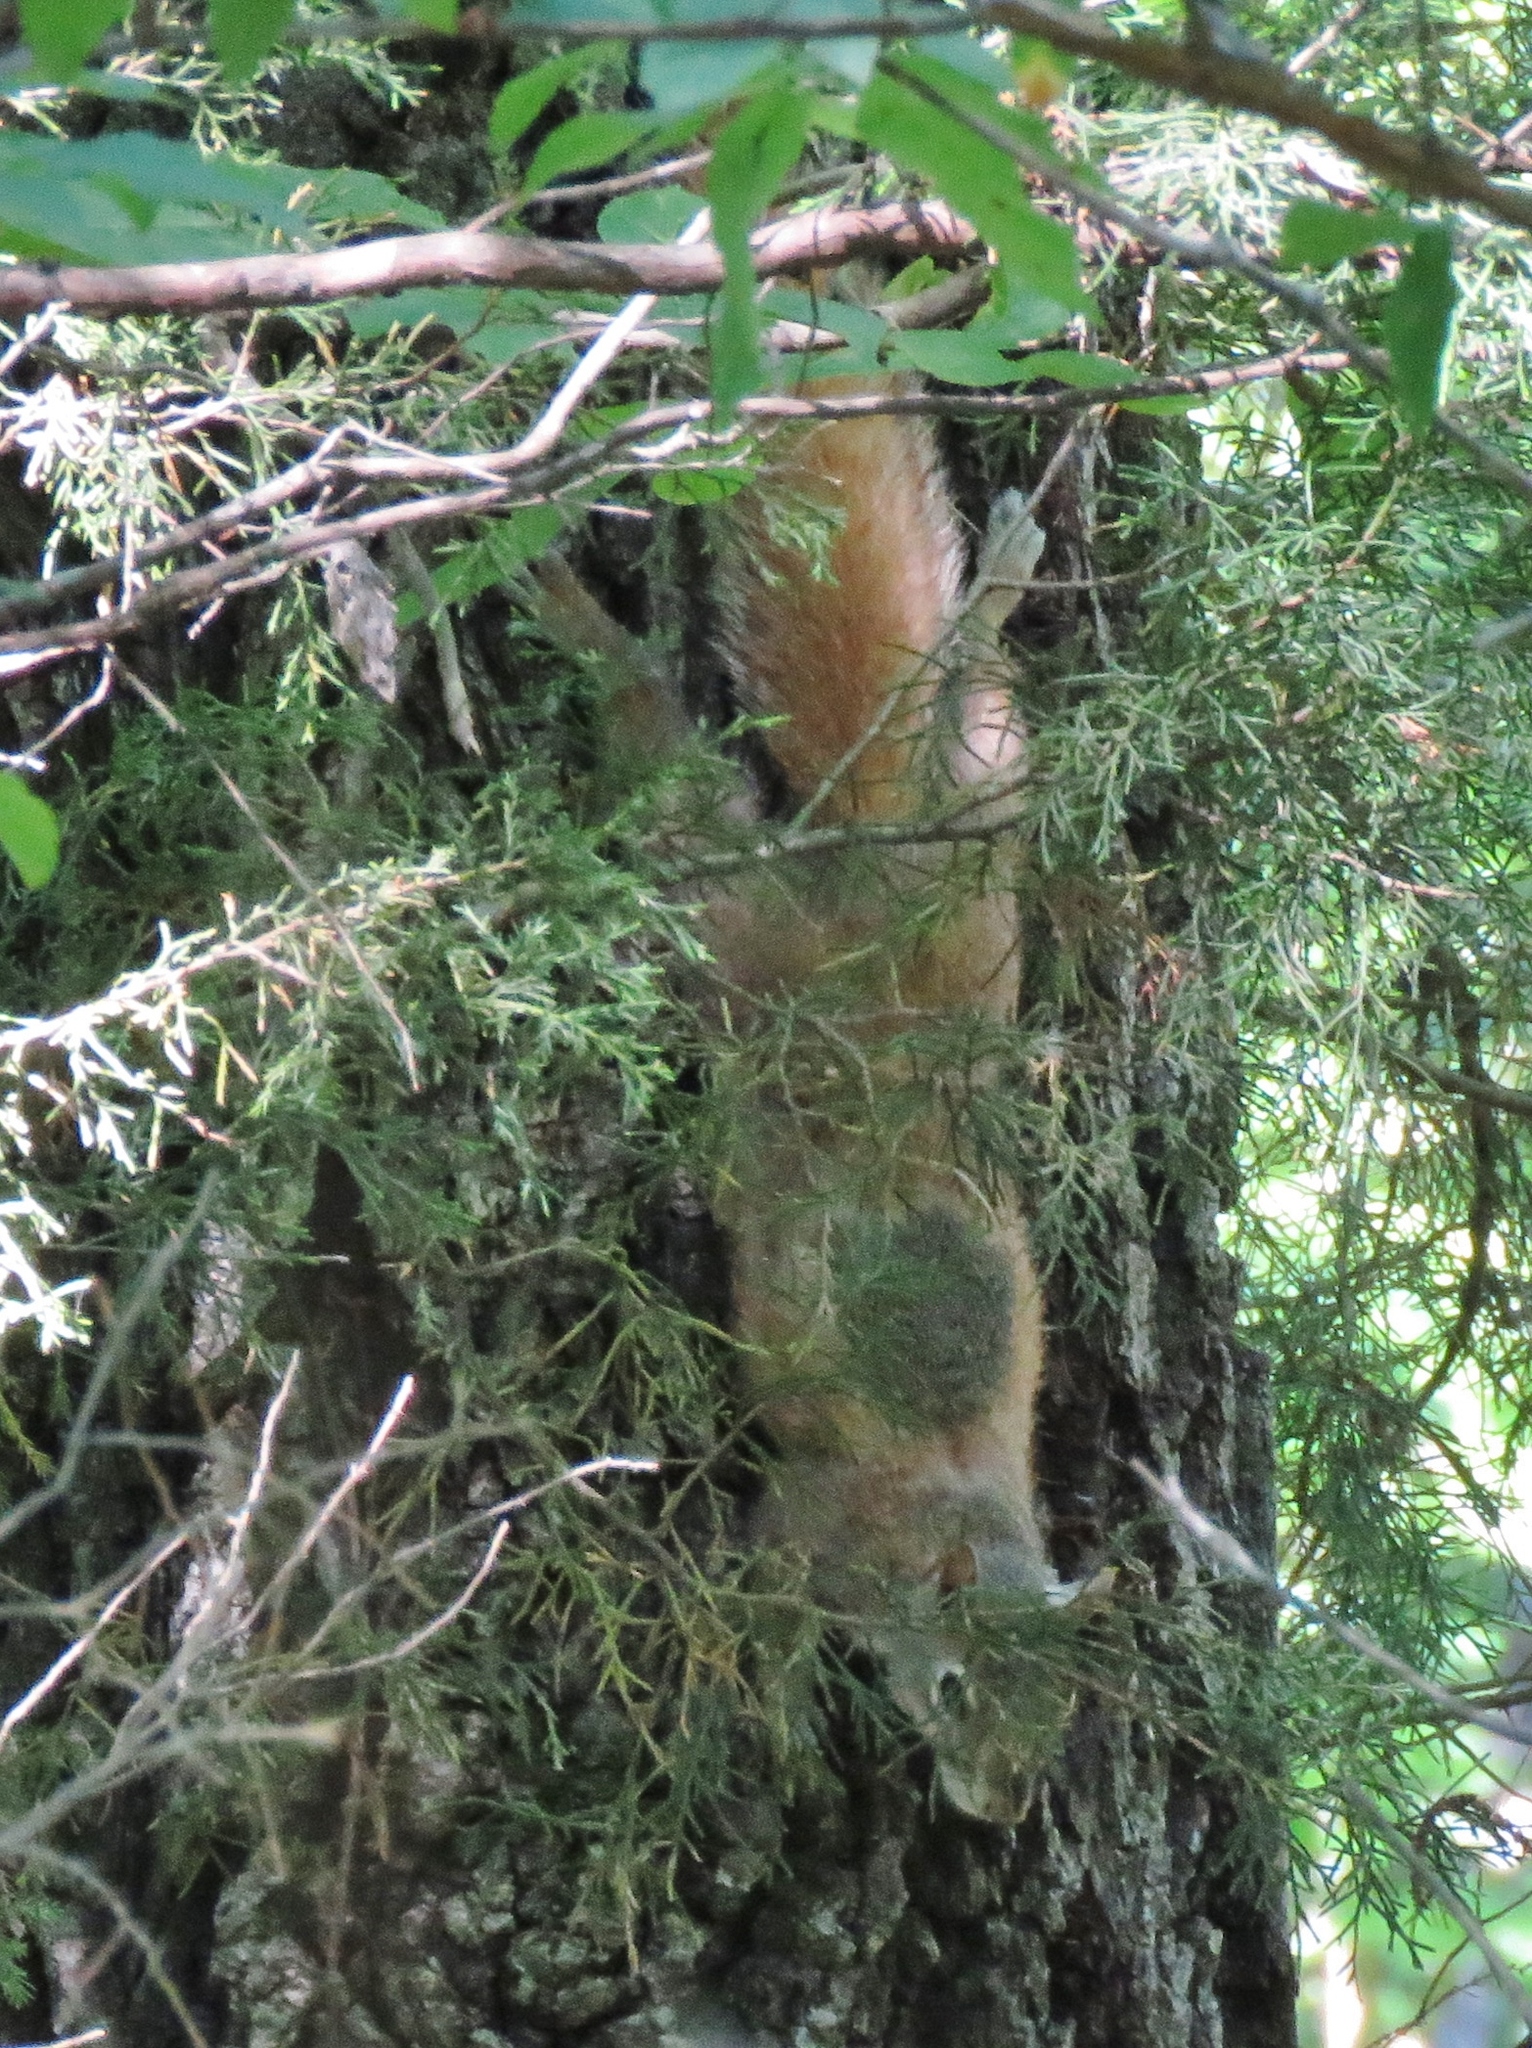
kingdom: Animalia
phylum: Chordata
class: Mammalia
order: Rodentia
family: Sciuridae
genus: Sciurus
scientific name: Sciurus carolinensis
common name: Eastern gray squirrel
